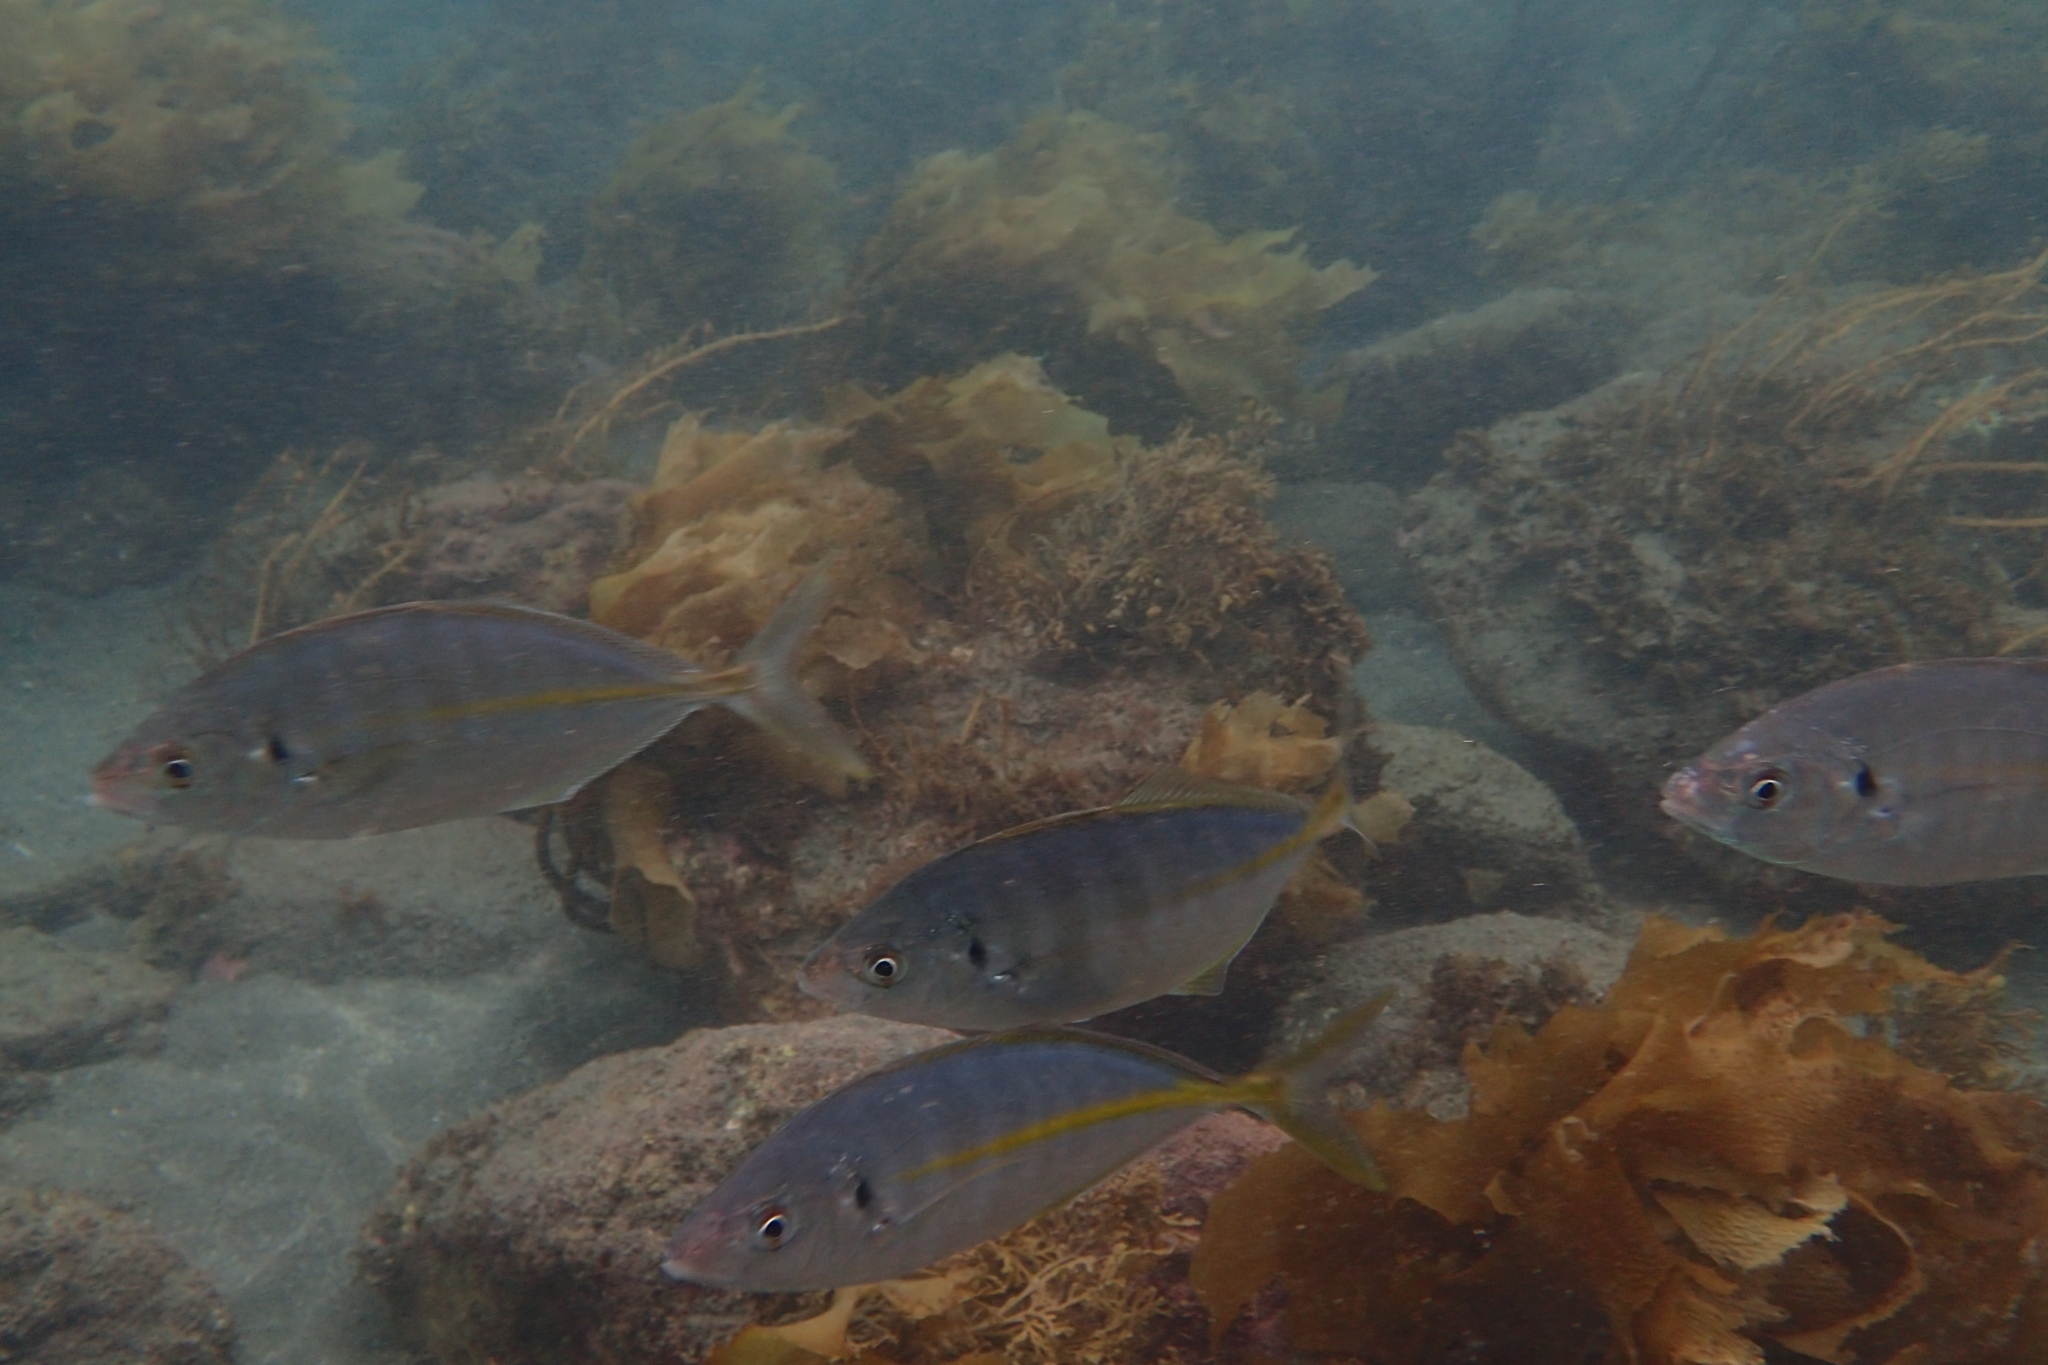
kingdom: Animalia
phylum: Chordata
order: Perciformes
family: Carangidae
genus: Pseudocaranx
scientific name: Pseudocaranx dentex
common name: White trevally
